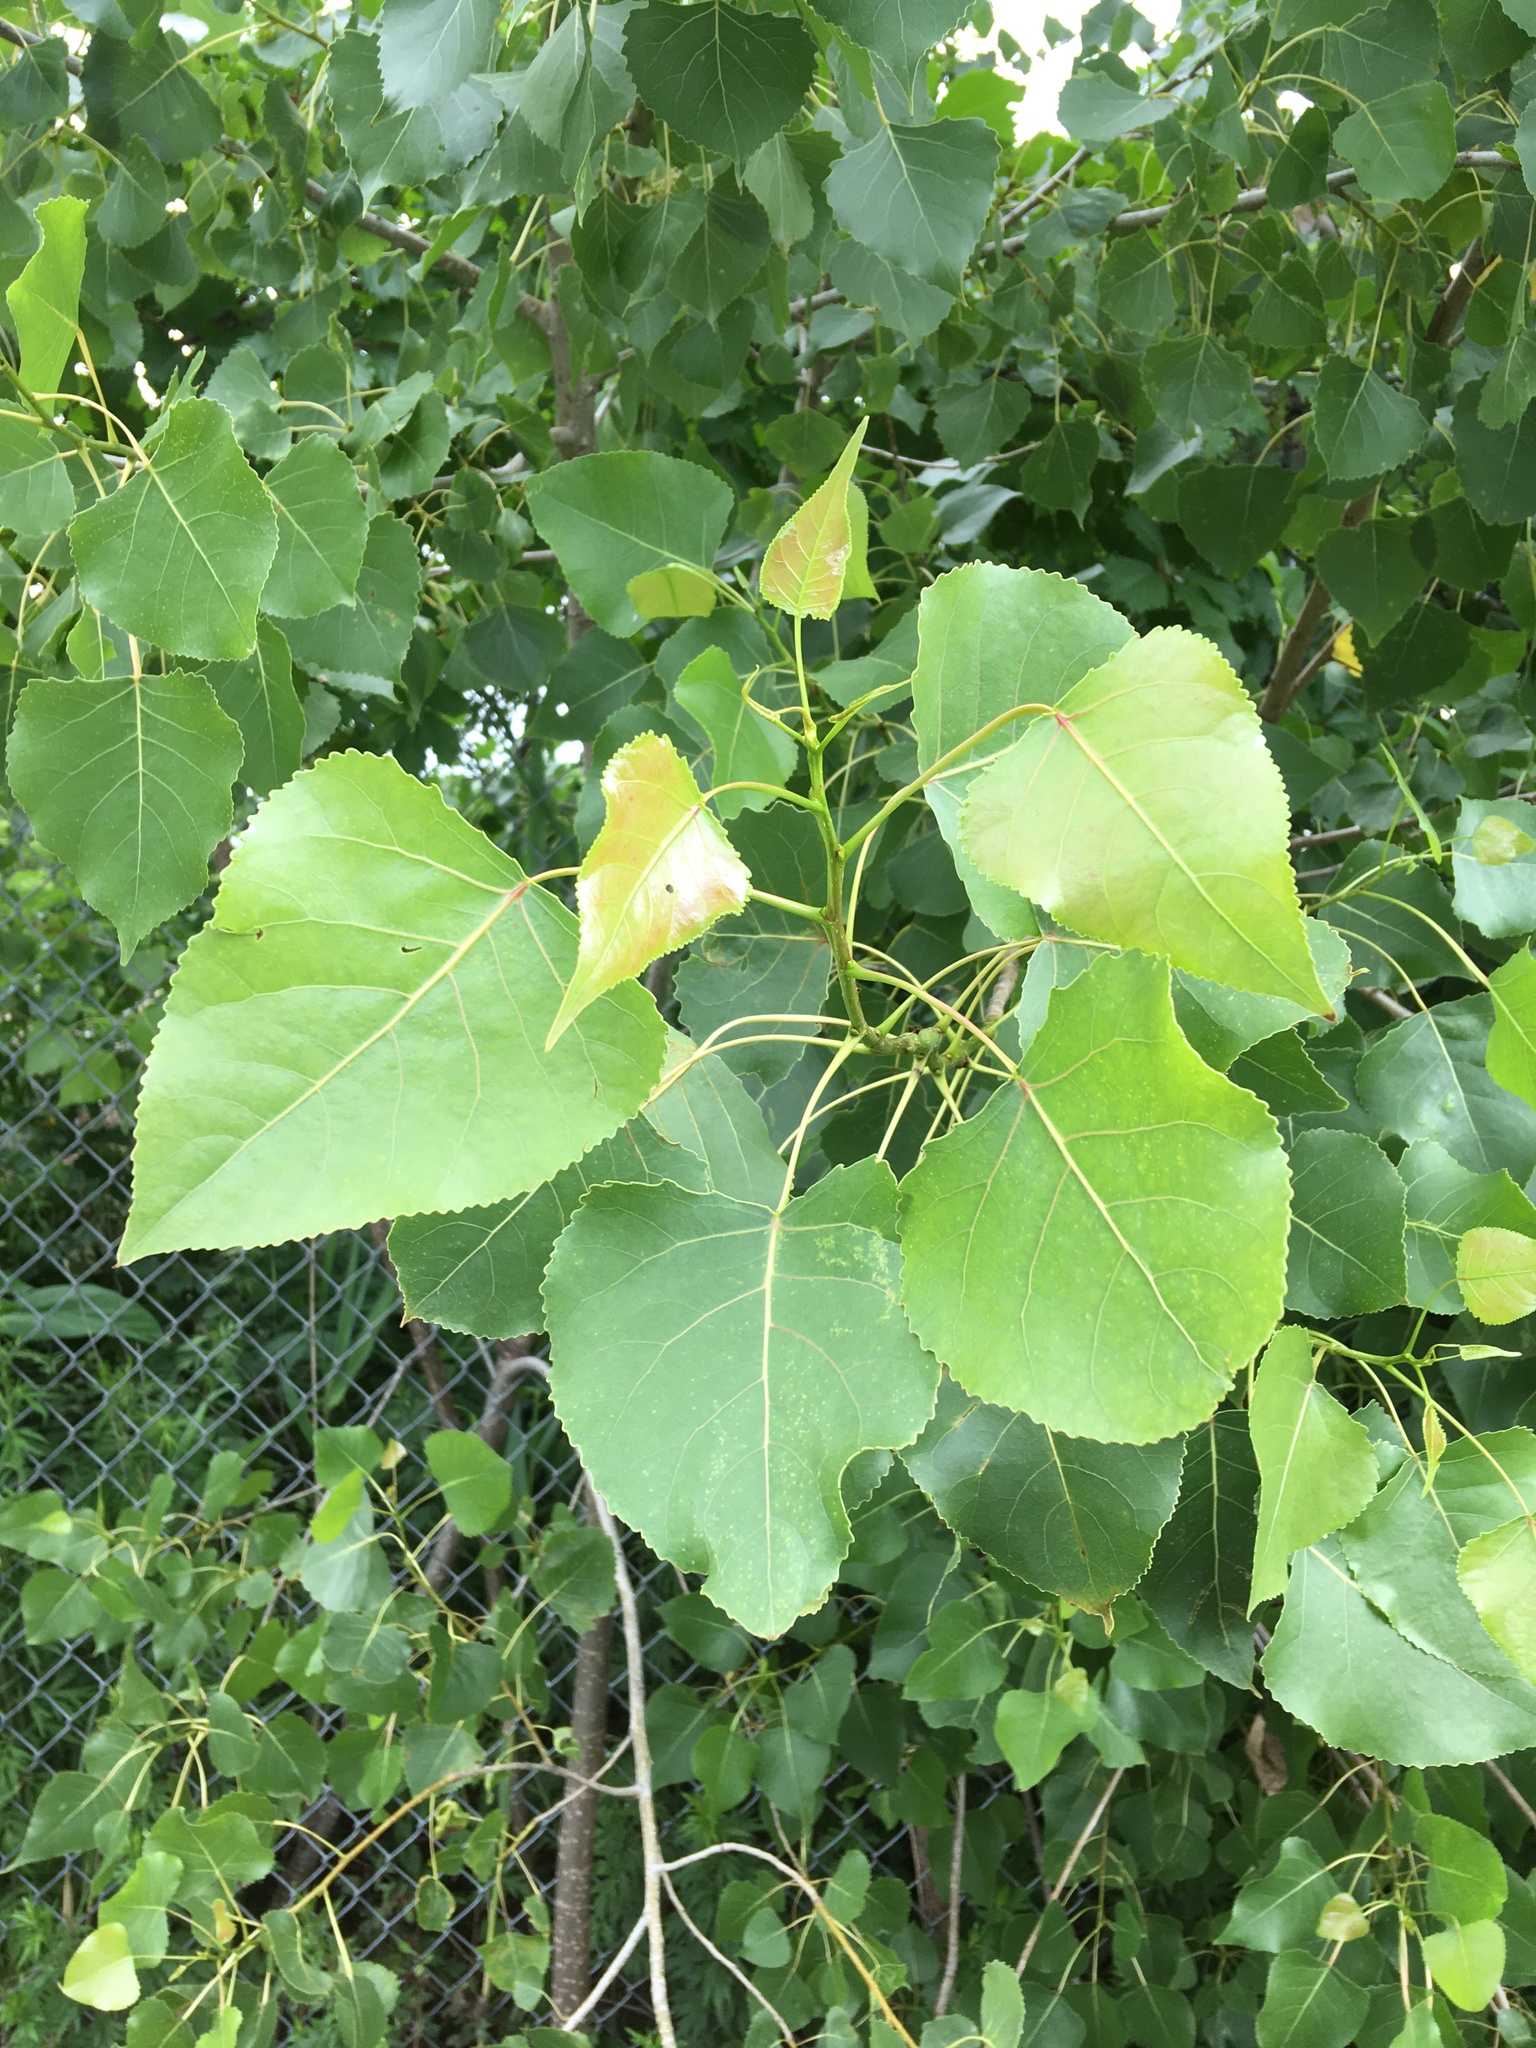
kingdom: Plantae
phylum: Tracheophyta
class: Magnoliopsida
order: Malpighiales
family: Salicaceae
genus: Populus
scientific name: Populus deltoides
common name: Eastern cottonwood
